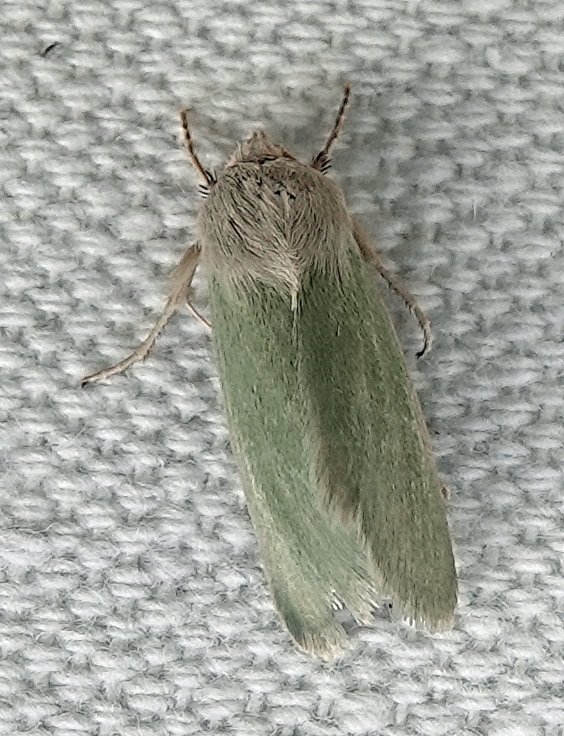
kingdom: Animalia
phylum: Arthropoda
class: Insecta
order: Lepidoptera
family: Noctuidae
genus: Schinia
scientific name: Schinia simplex
